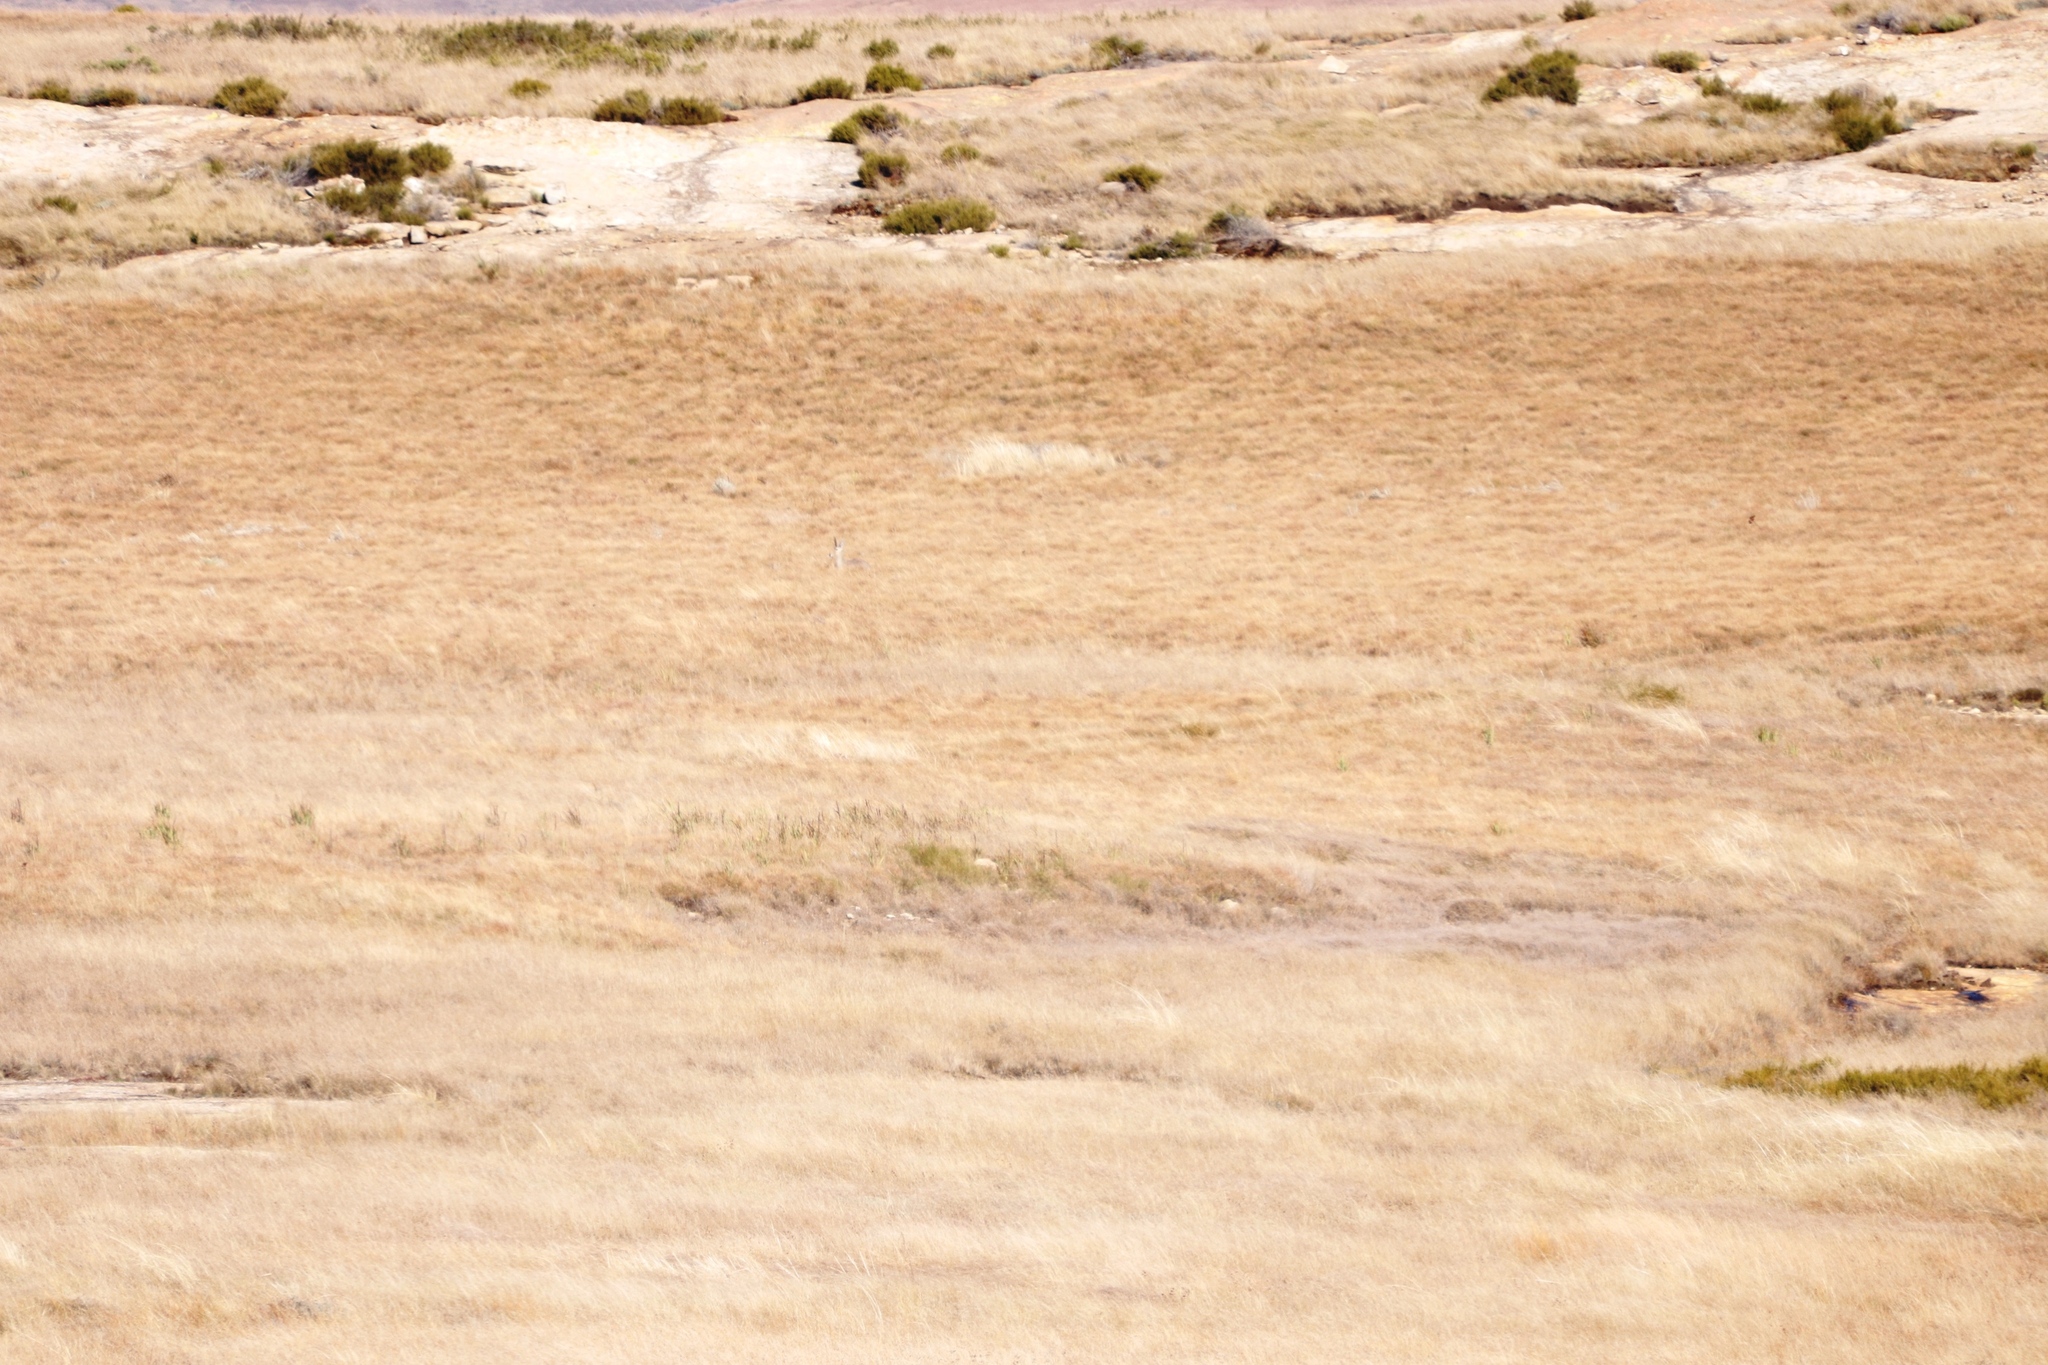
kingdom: Animalia
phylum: Chordata
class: Mammalia
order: Artiodactyla
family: Bovidae
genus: Pelea
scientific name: Pelea capreolus
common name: Common rhebok
